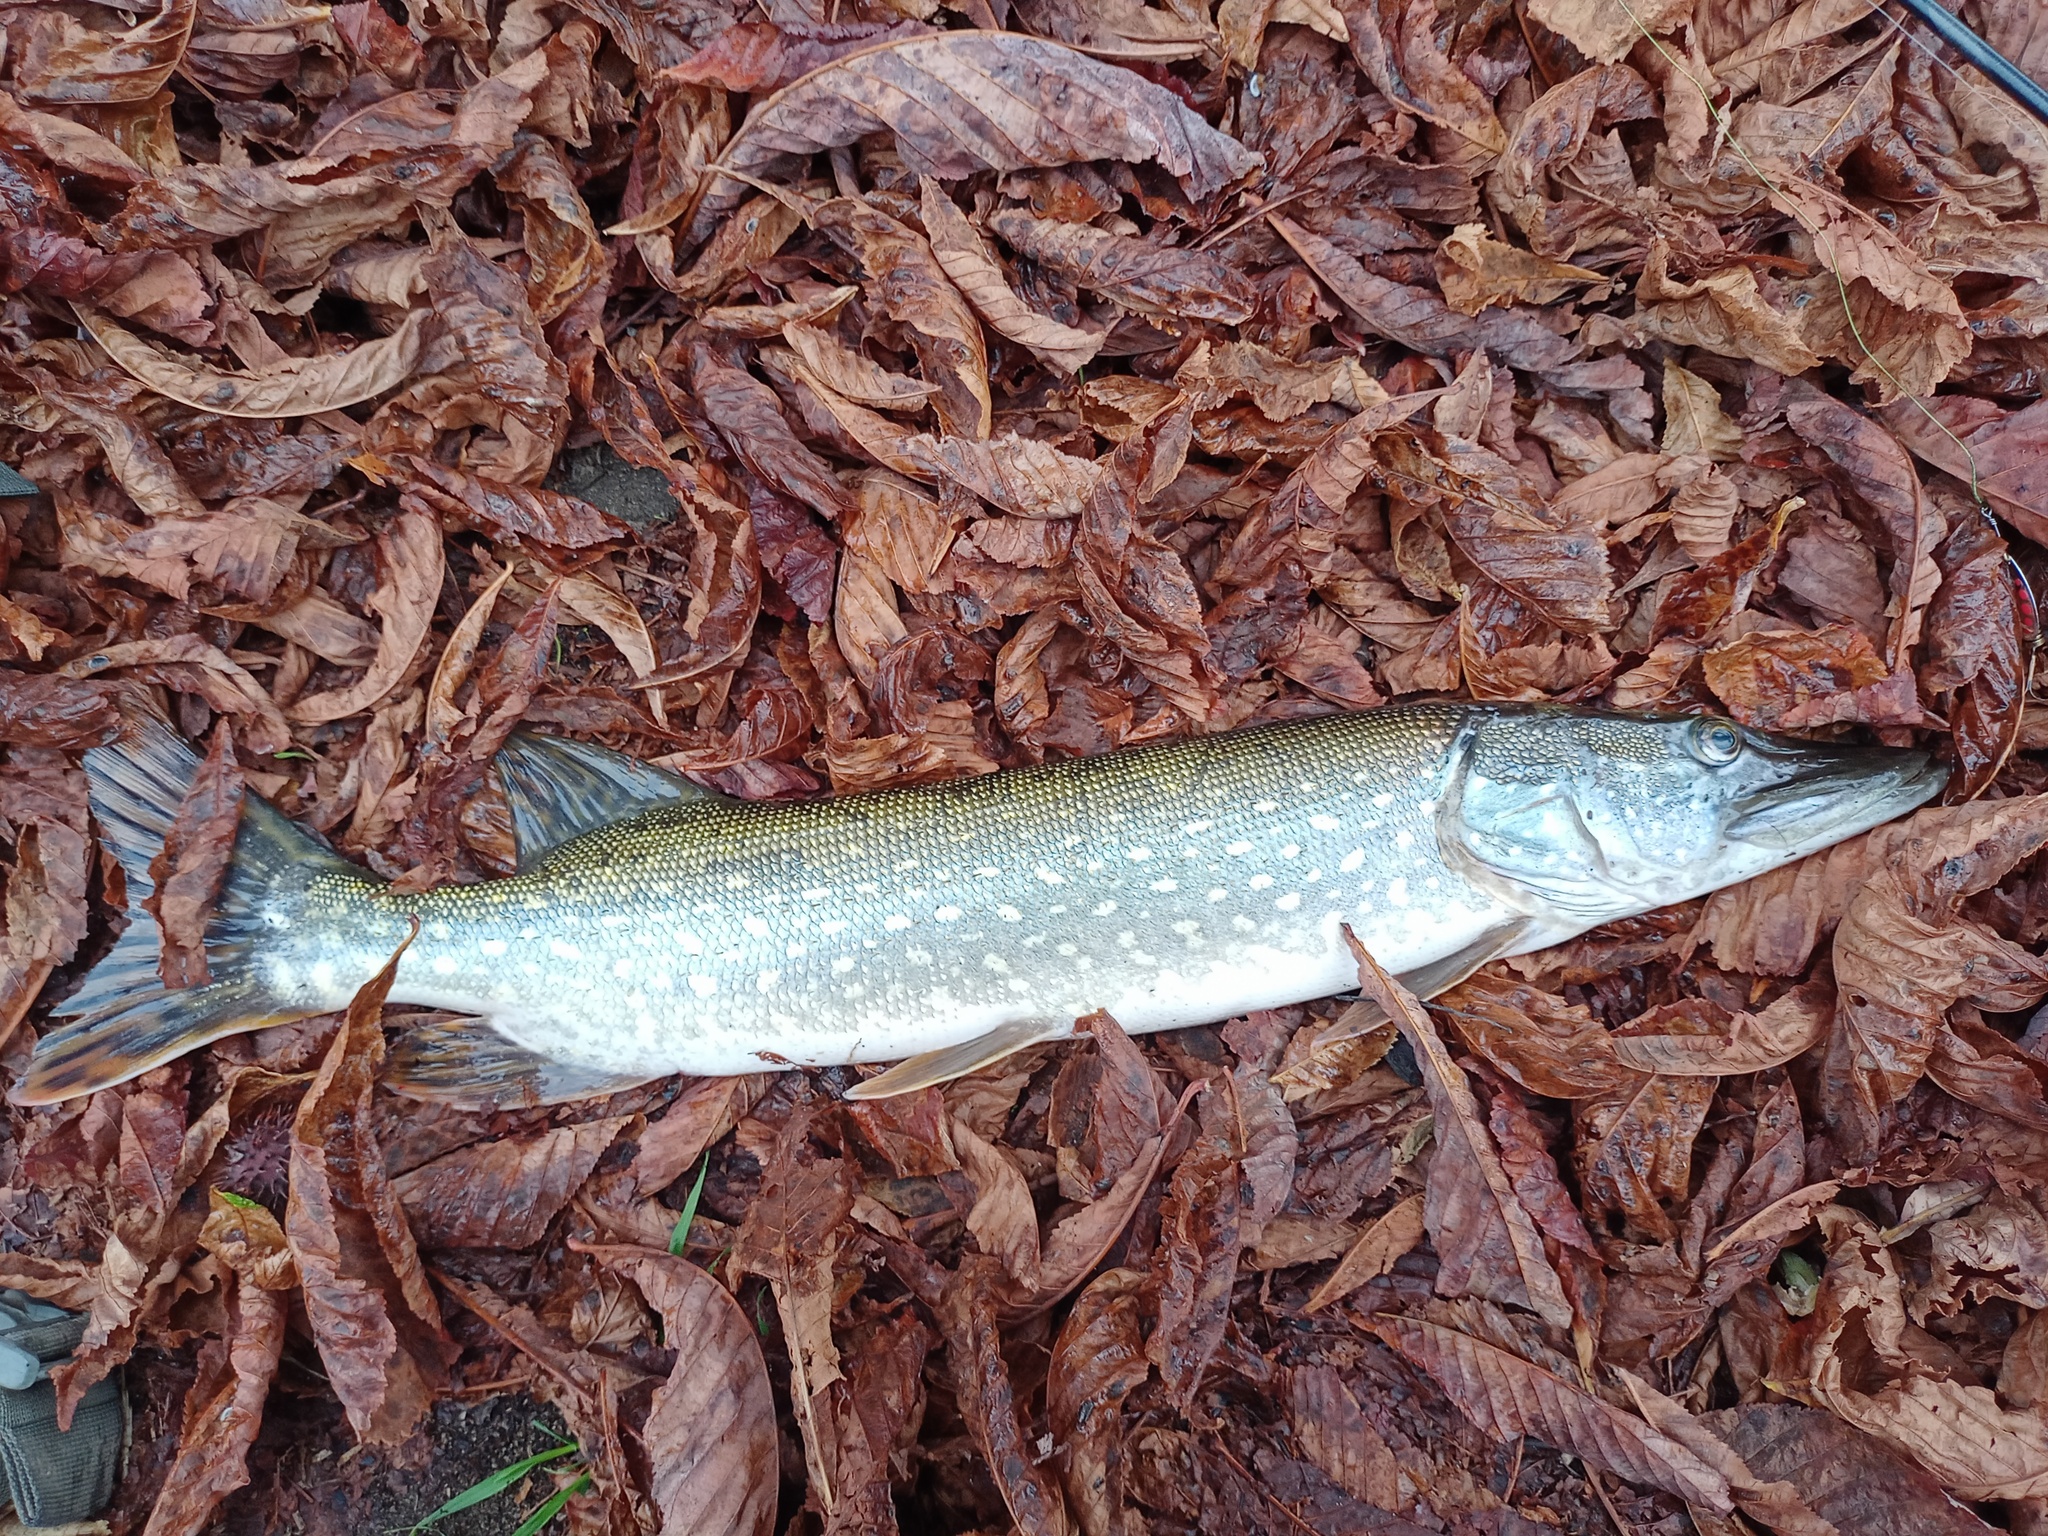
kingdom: Animalia
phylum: Chordata
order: Esociformes
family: Esocidae
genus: Esox
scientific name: Esox lucius
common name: Northern pike
